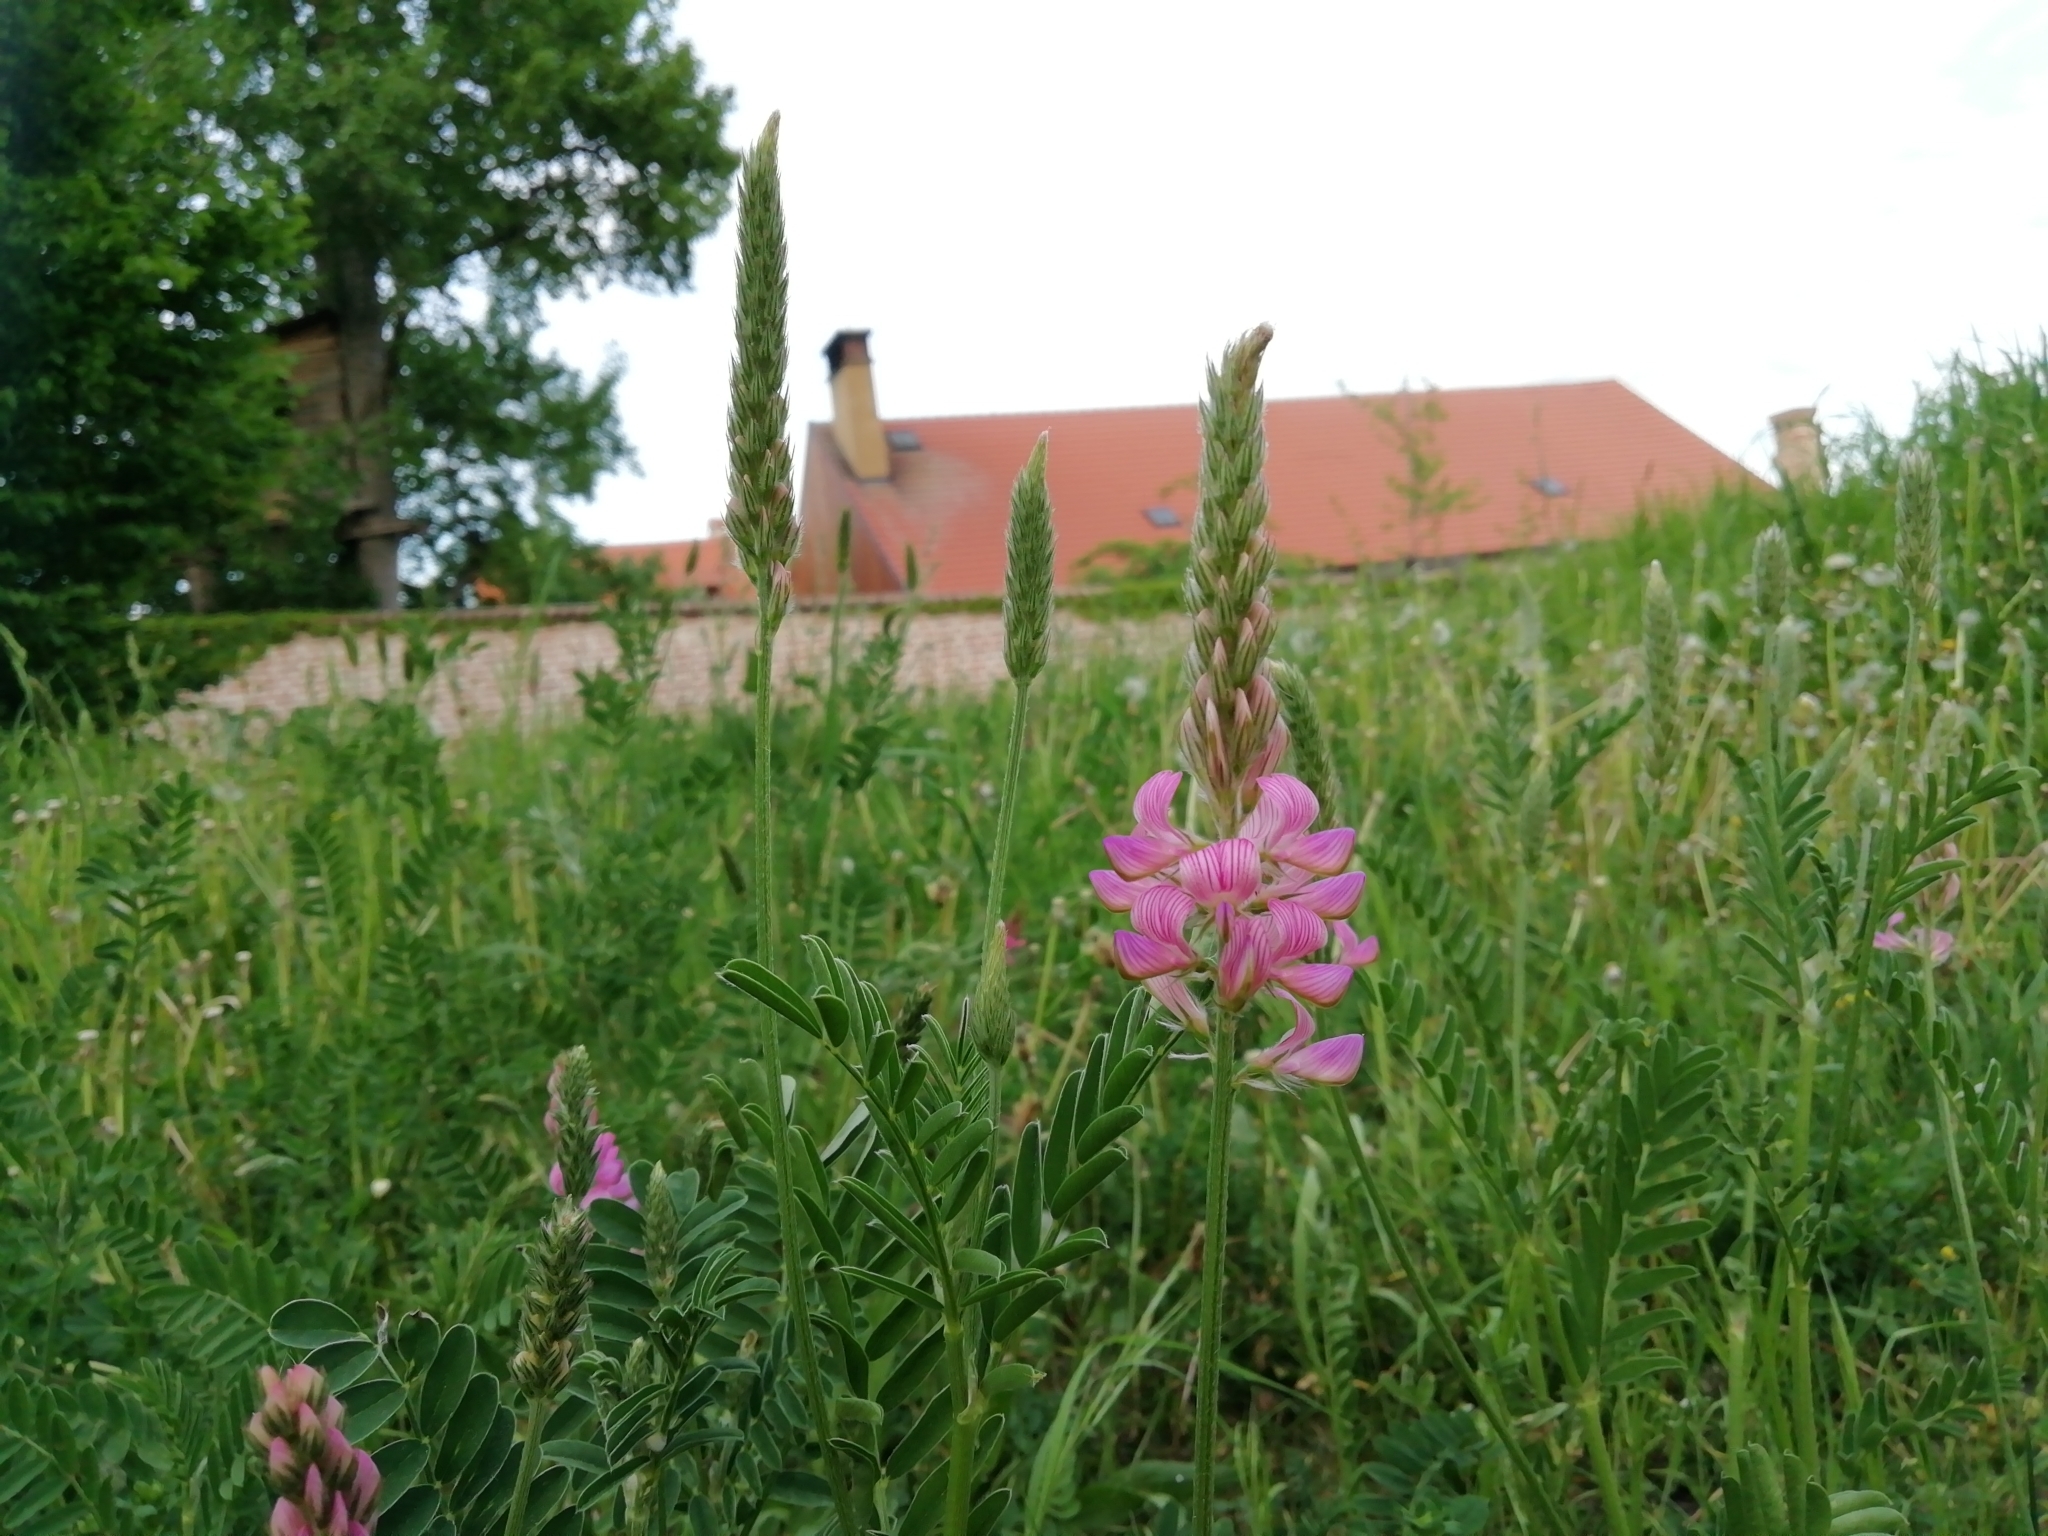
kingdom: Plantae
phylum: Tracheophyta
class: Magnoliopsida
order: Fabales
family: Fabaceae
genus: Onobrychis
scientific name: Onobrychis viciifolia
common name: Sainfoin
